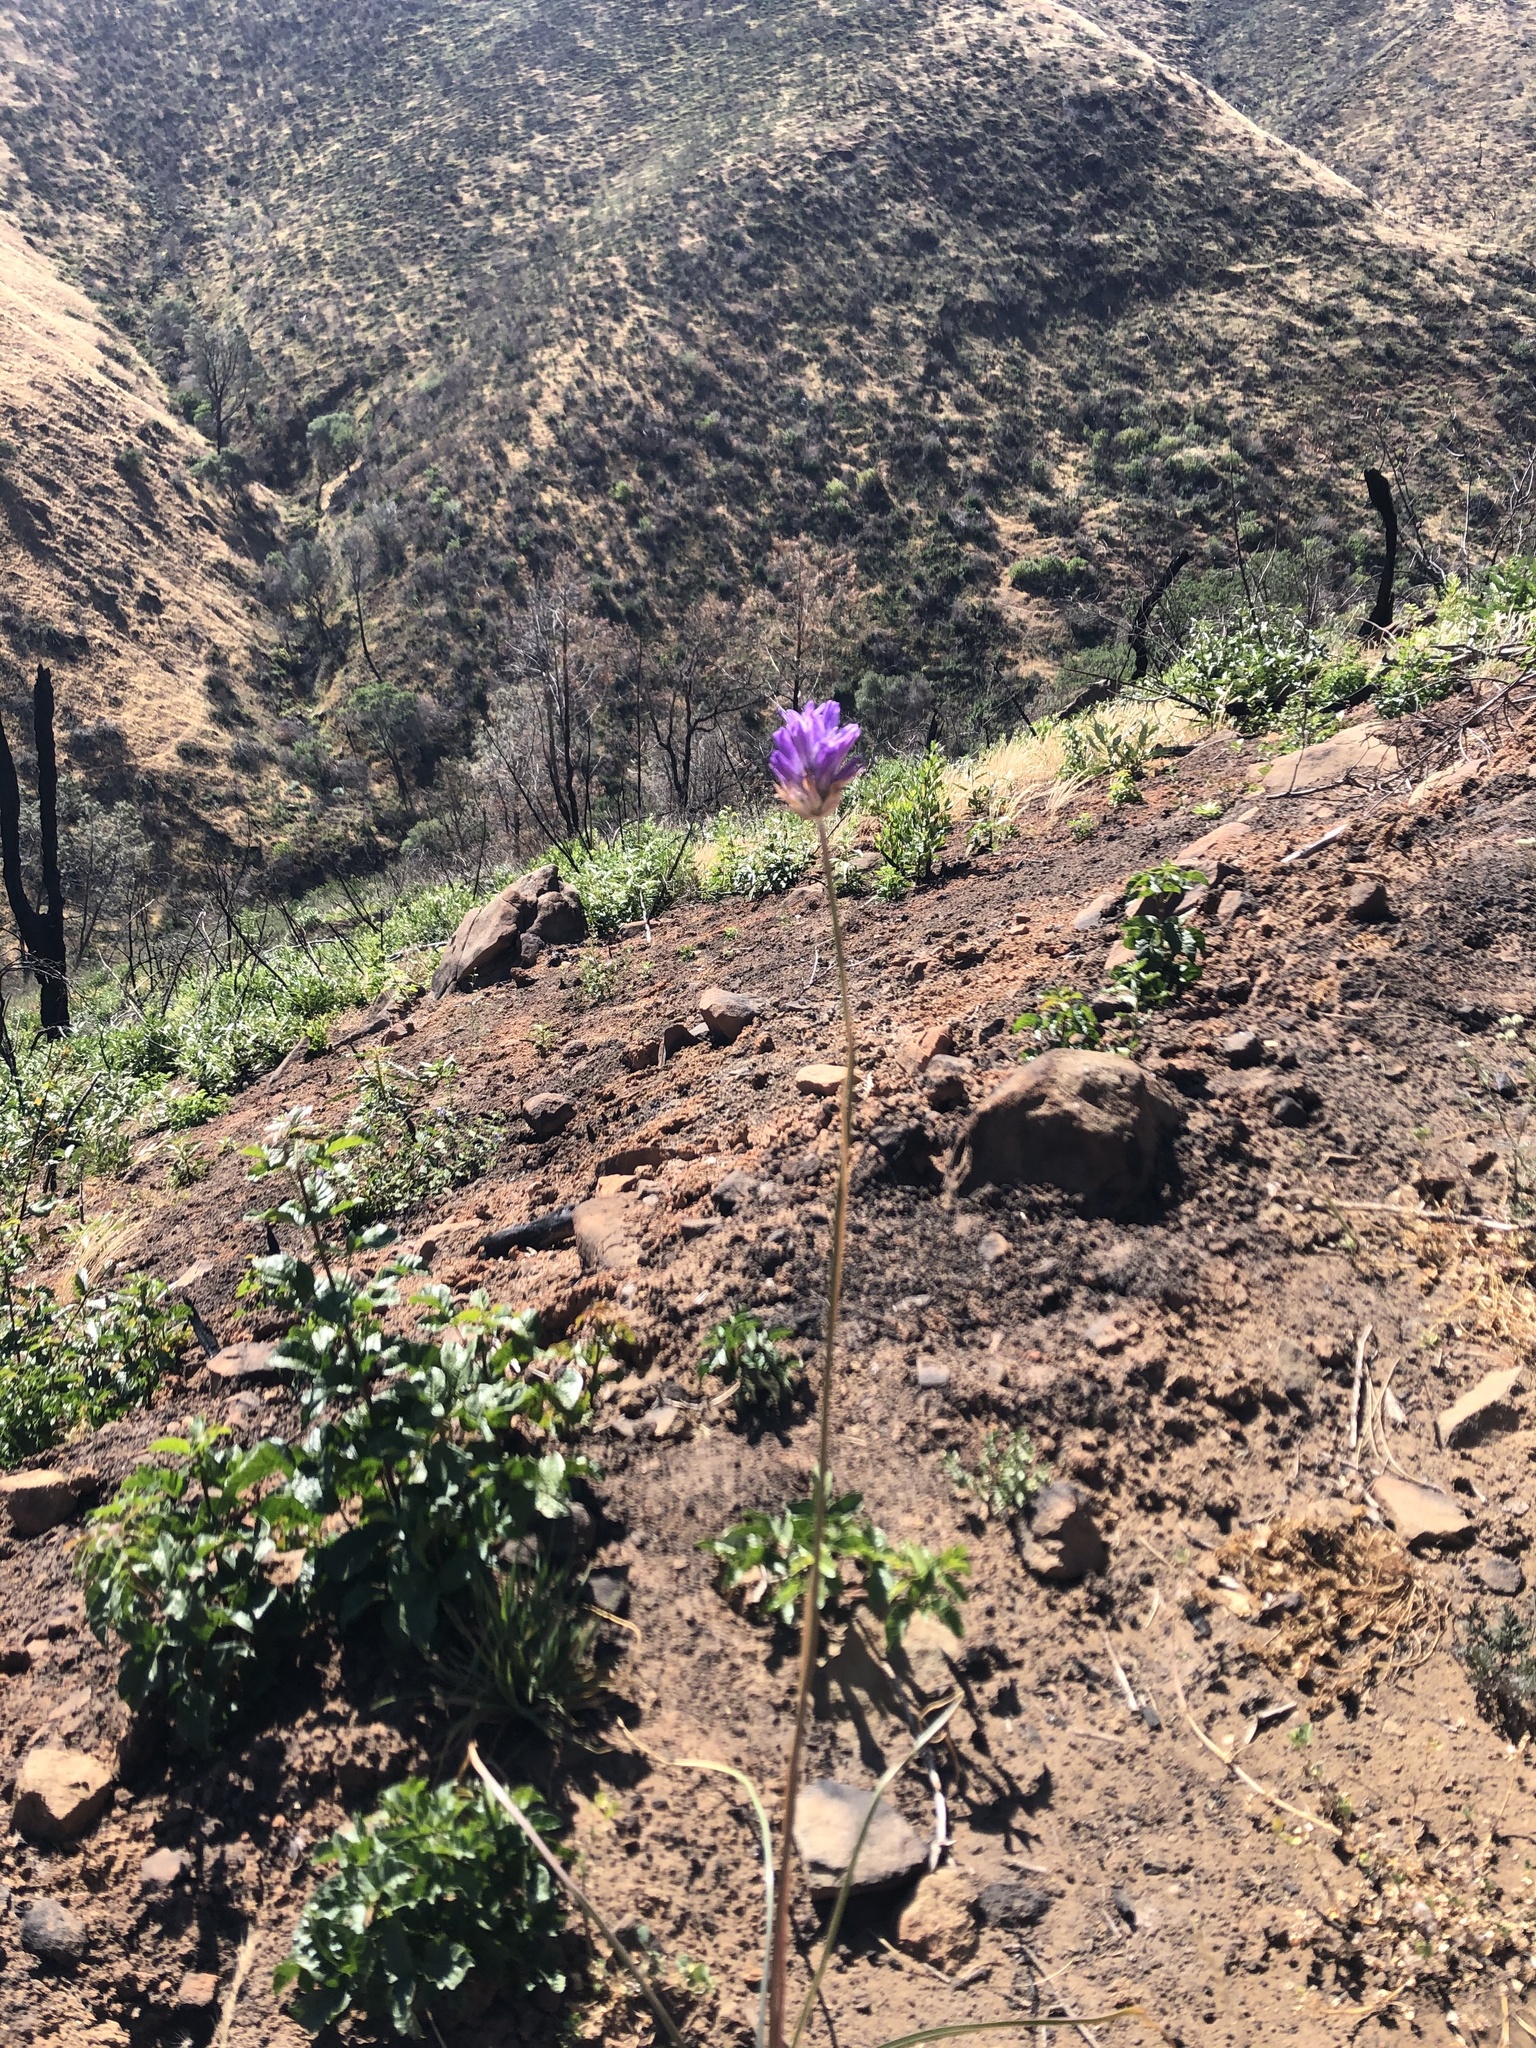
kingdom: Plantae
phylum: Tracheophyta
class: Liliopsida
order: Asparagales
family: Asparagaceae
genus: Dichelostemma
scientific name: Dichelostemma congestum
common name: Fork-tooth ookow
